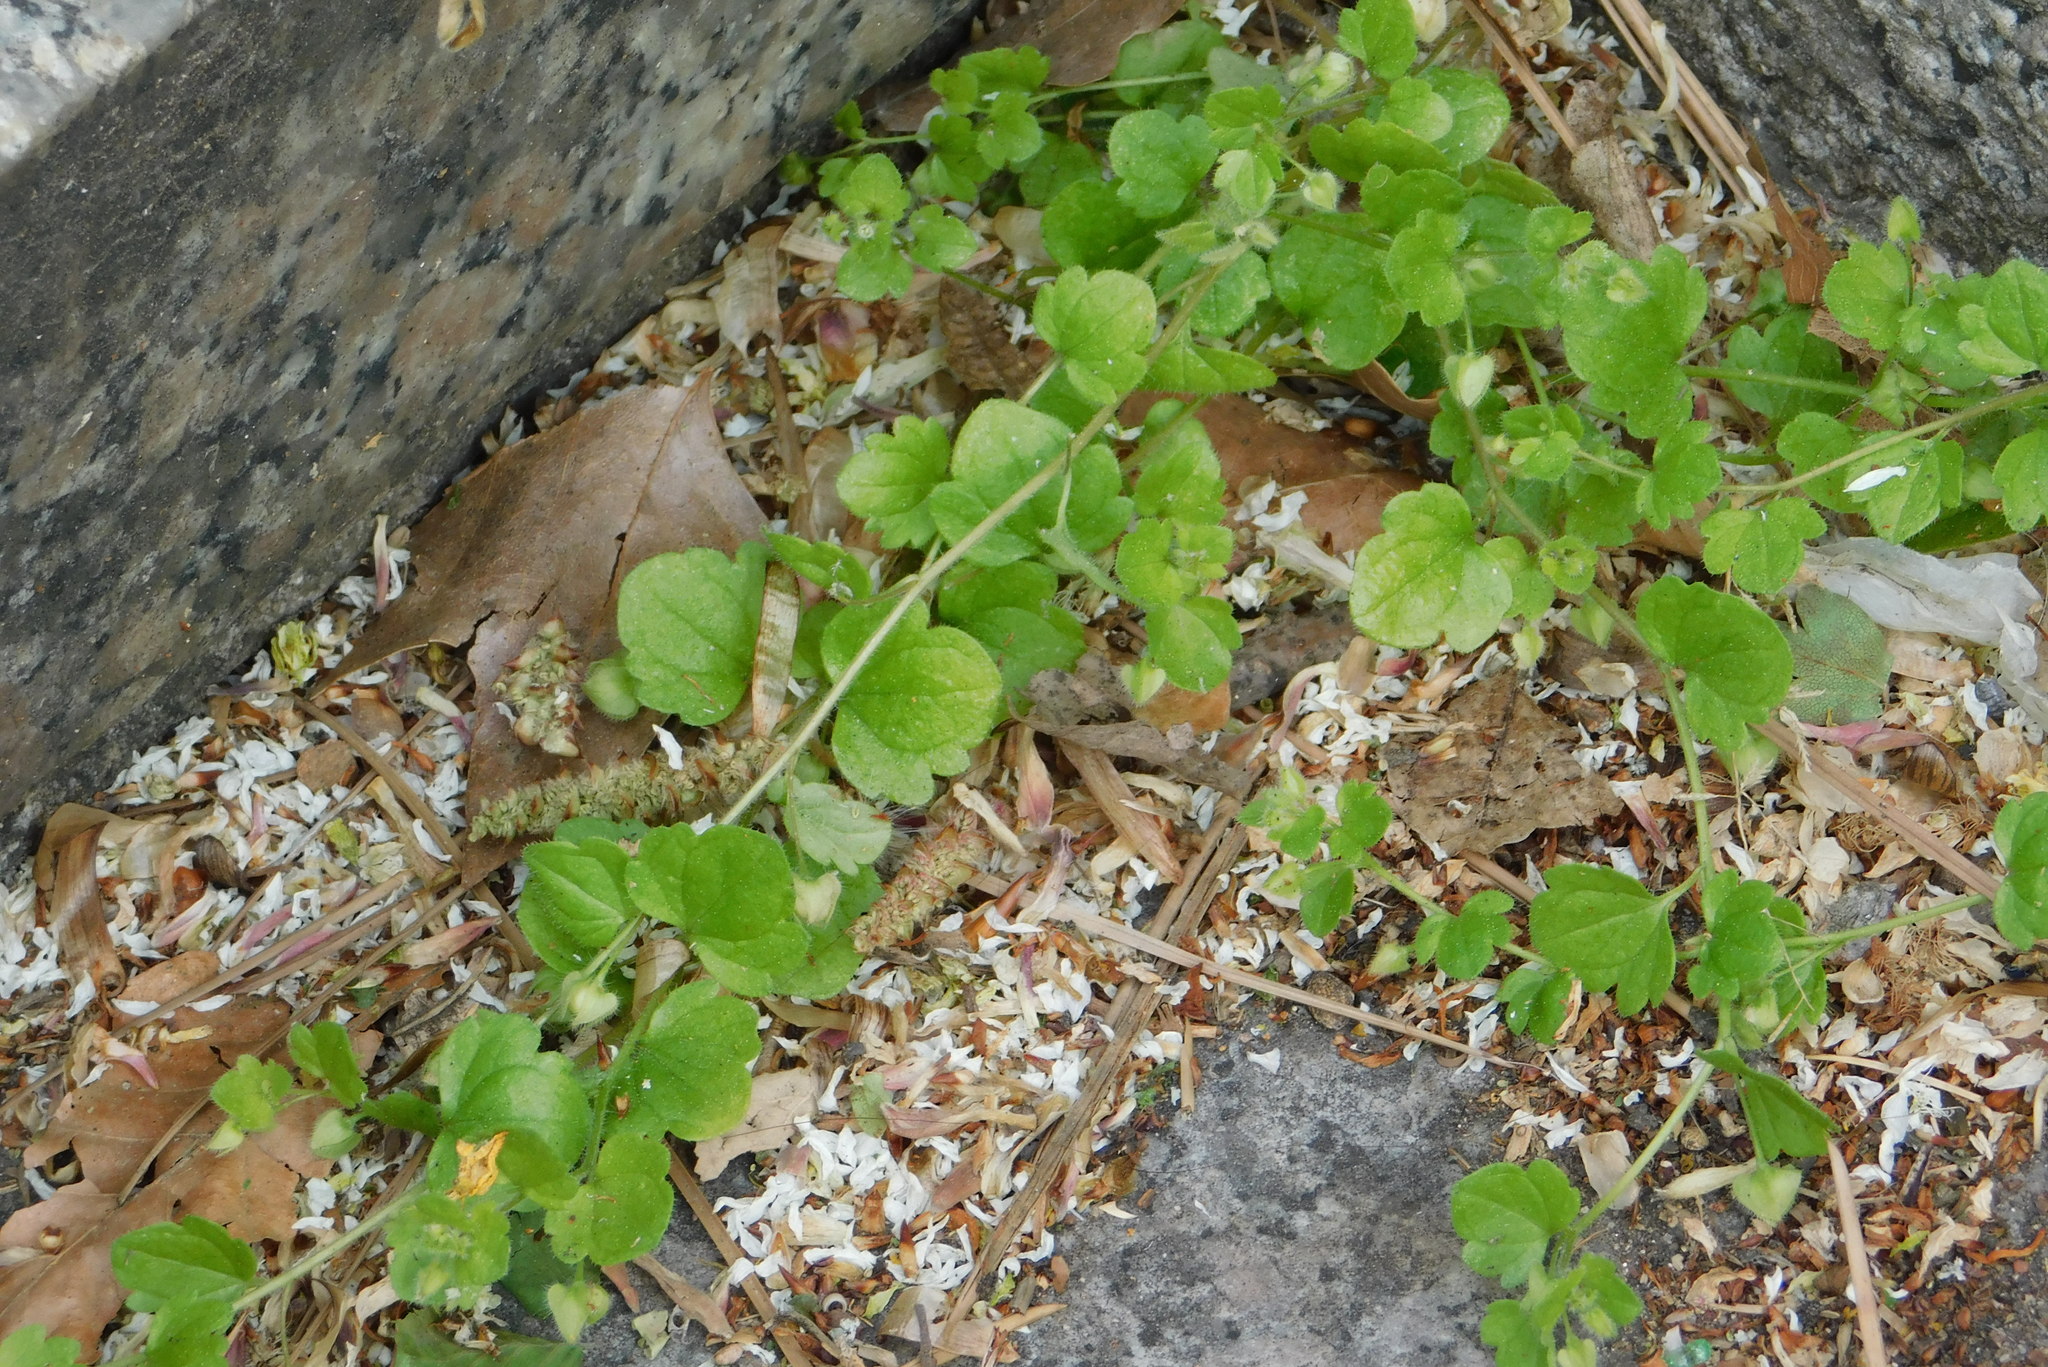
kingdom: Plantae
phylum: Tracheophyta
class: Magnoliopsida
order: Lamiales
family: Plantaginaceae
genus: Veronica
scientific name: Veronica sublobata
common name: False ivy-leaved speedwell
